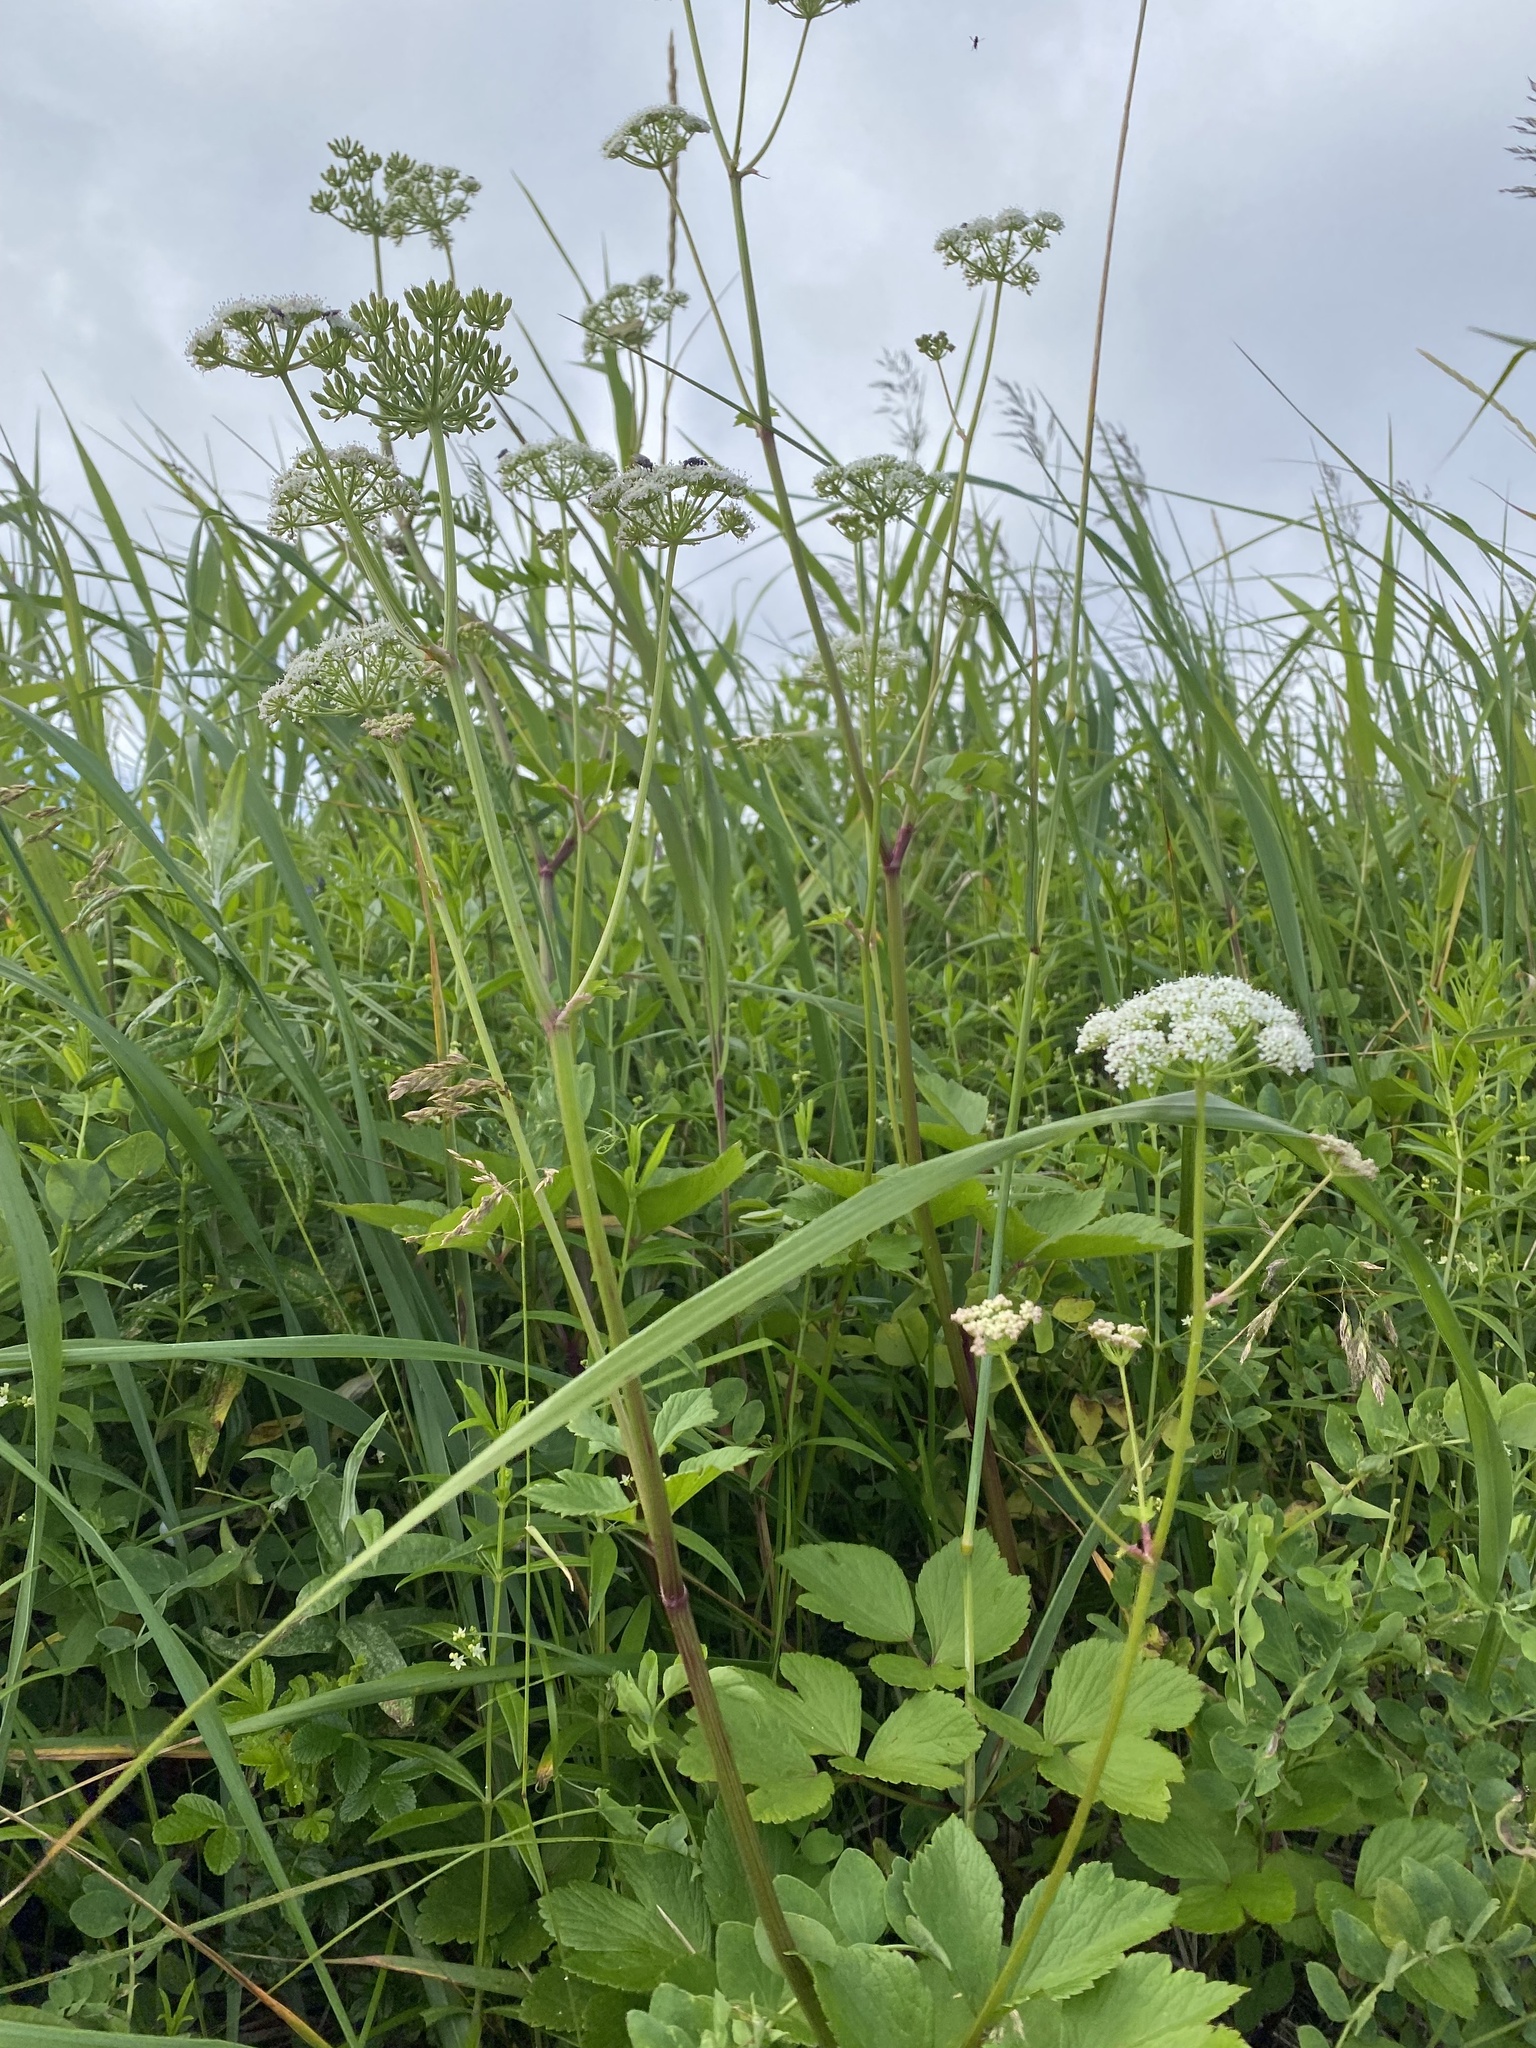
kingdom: Plantae
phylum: Tracheophyta
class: Magnoliopsida
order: Apiales
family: Apiaceae
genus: Ligusticum
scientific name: Ligusticum scothicum
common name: Beach lovage
